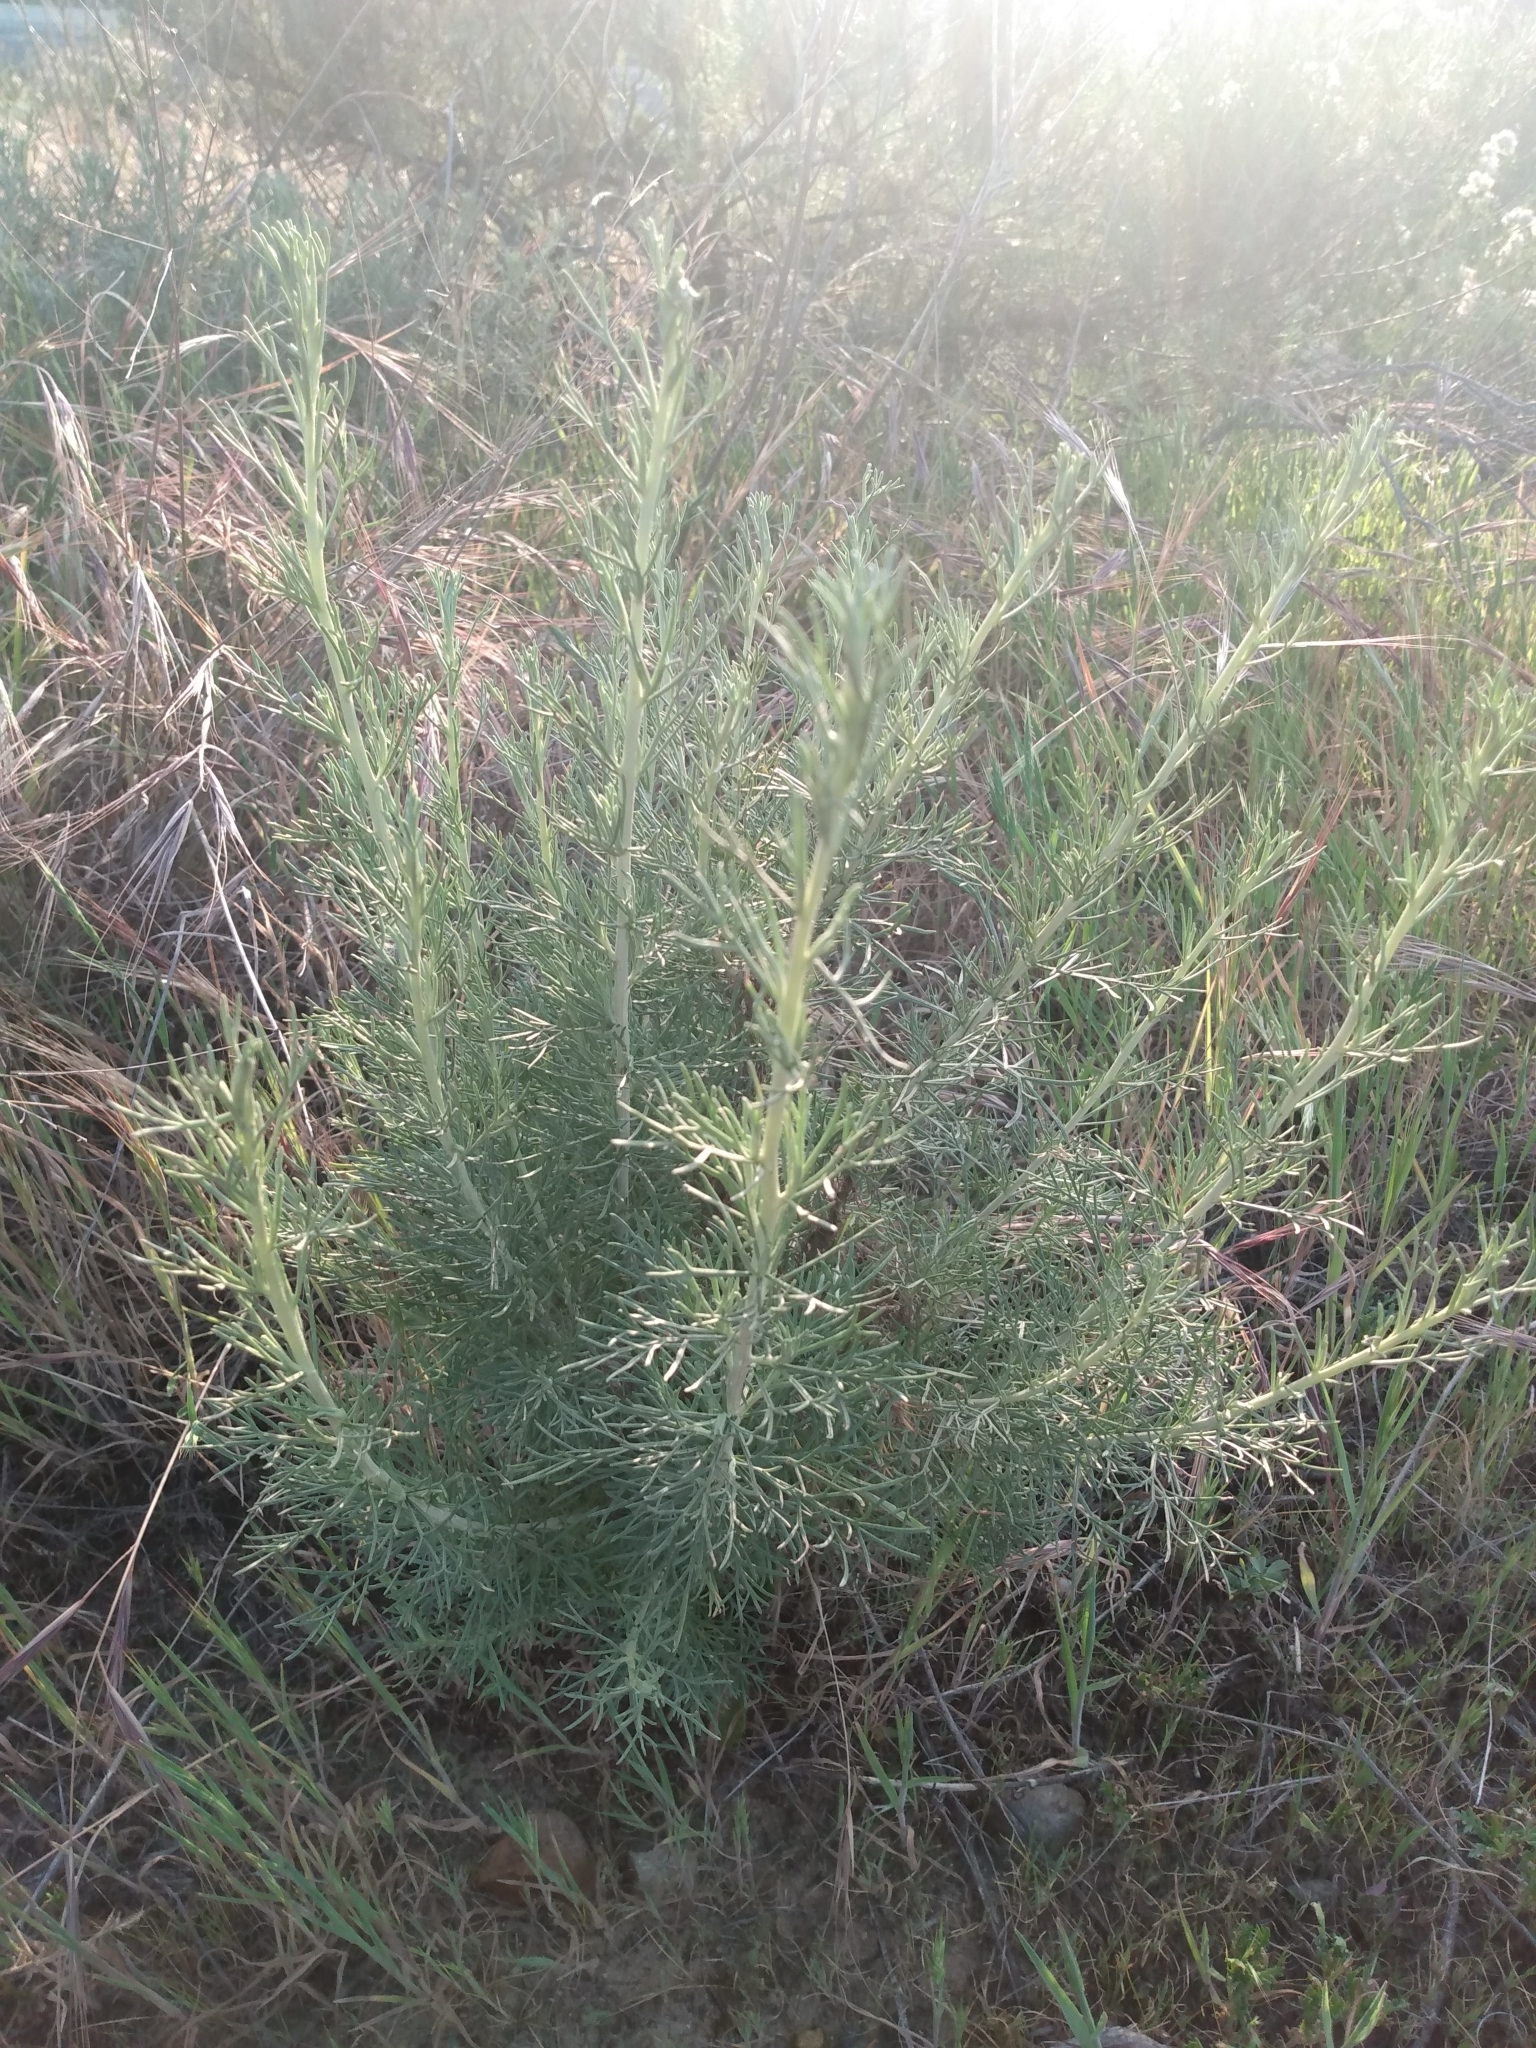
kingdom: Plantae
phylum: Tracheophyta
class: Magnoliopsida
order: Asterales
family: Asteraceae
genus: Artemisia
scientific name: Artemisia californica
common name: California sagebrush
